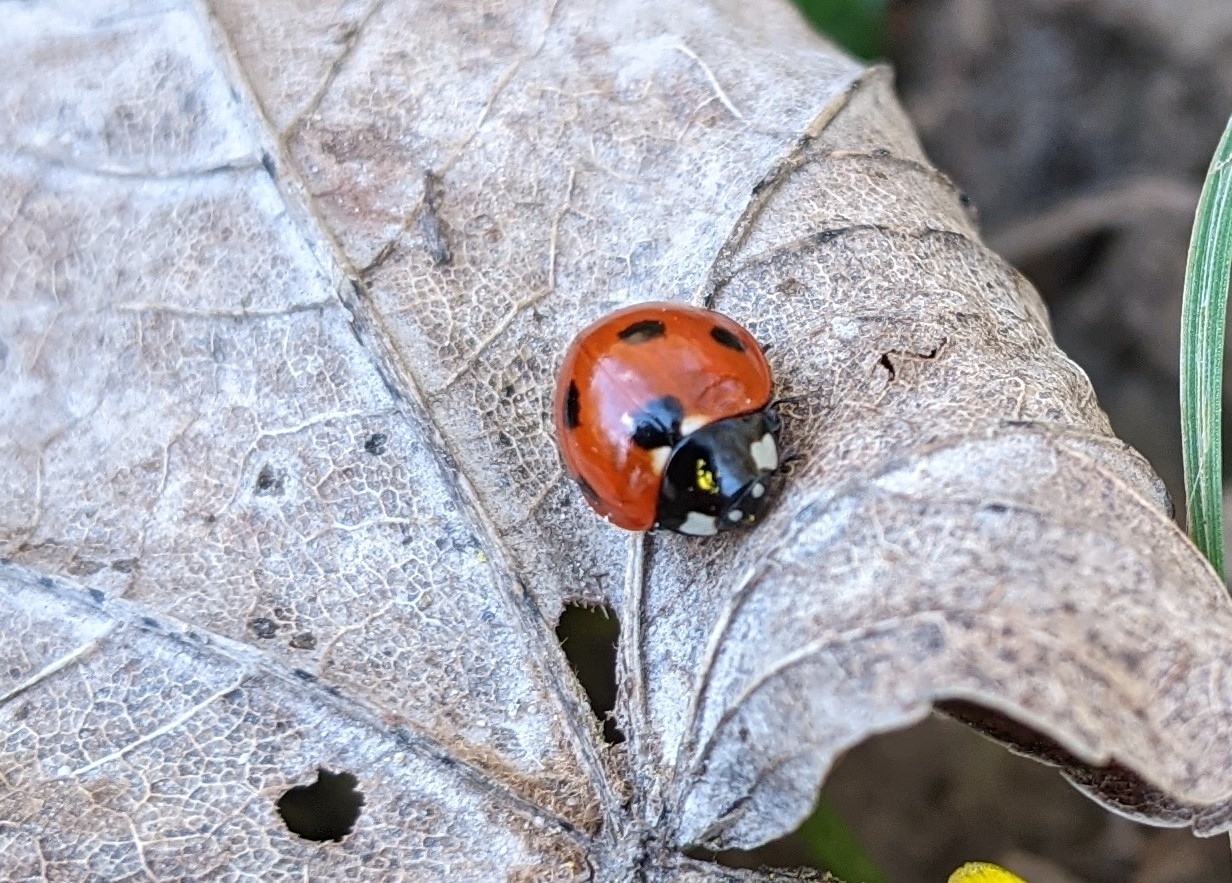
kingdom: Animalia
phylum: Arthropoda
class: Insecta
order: Coleoptera
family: Coccinellidae
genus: Coccinella
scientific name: Coccinella septempunctata
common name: Sevenspotted lady beetle
